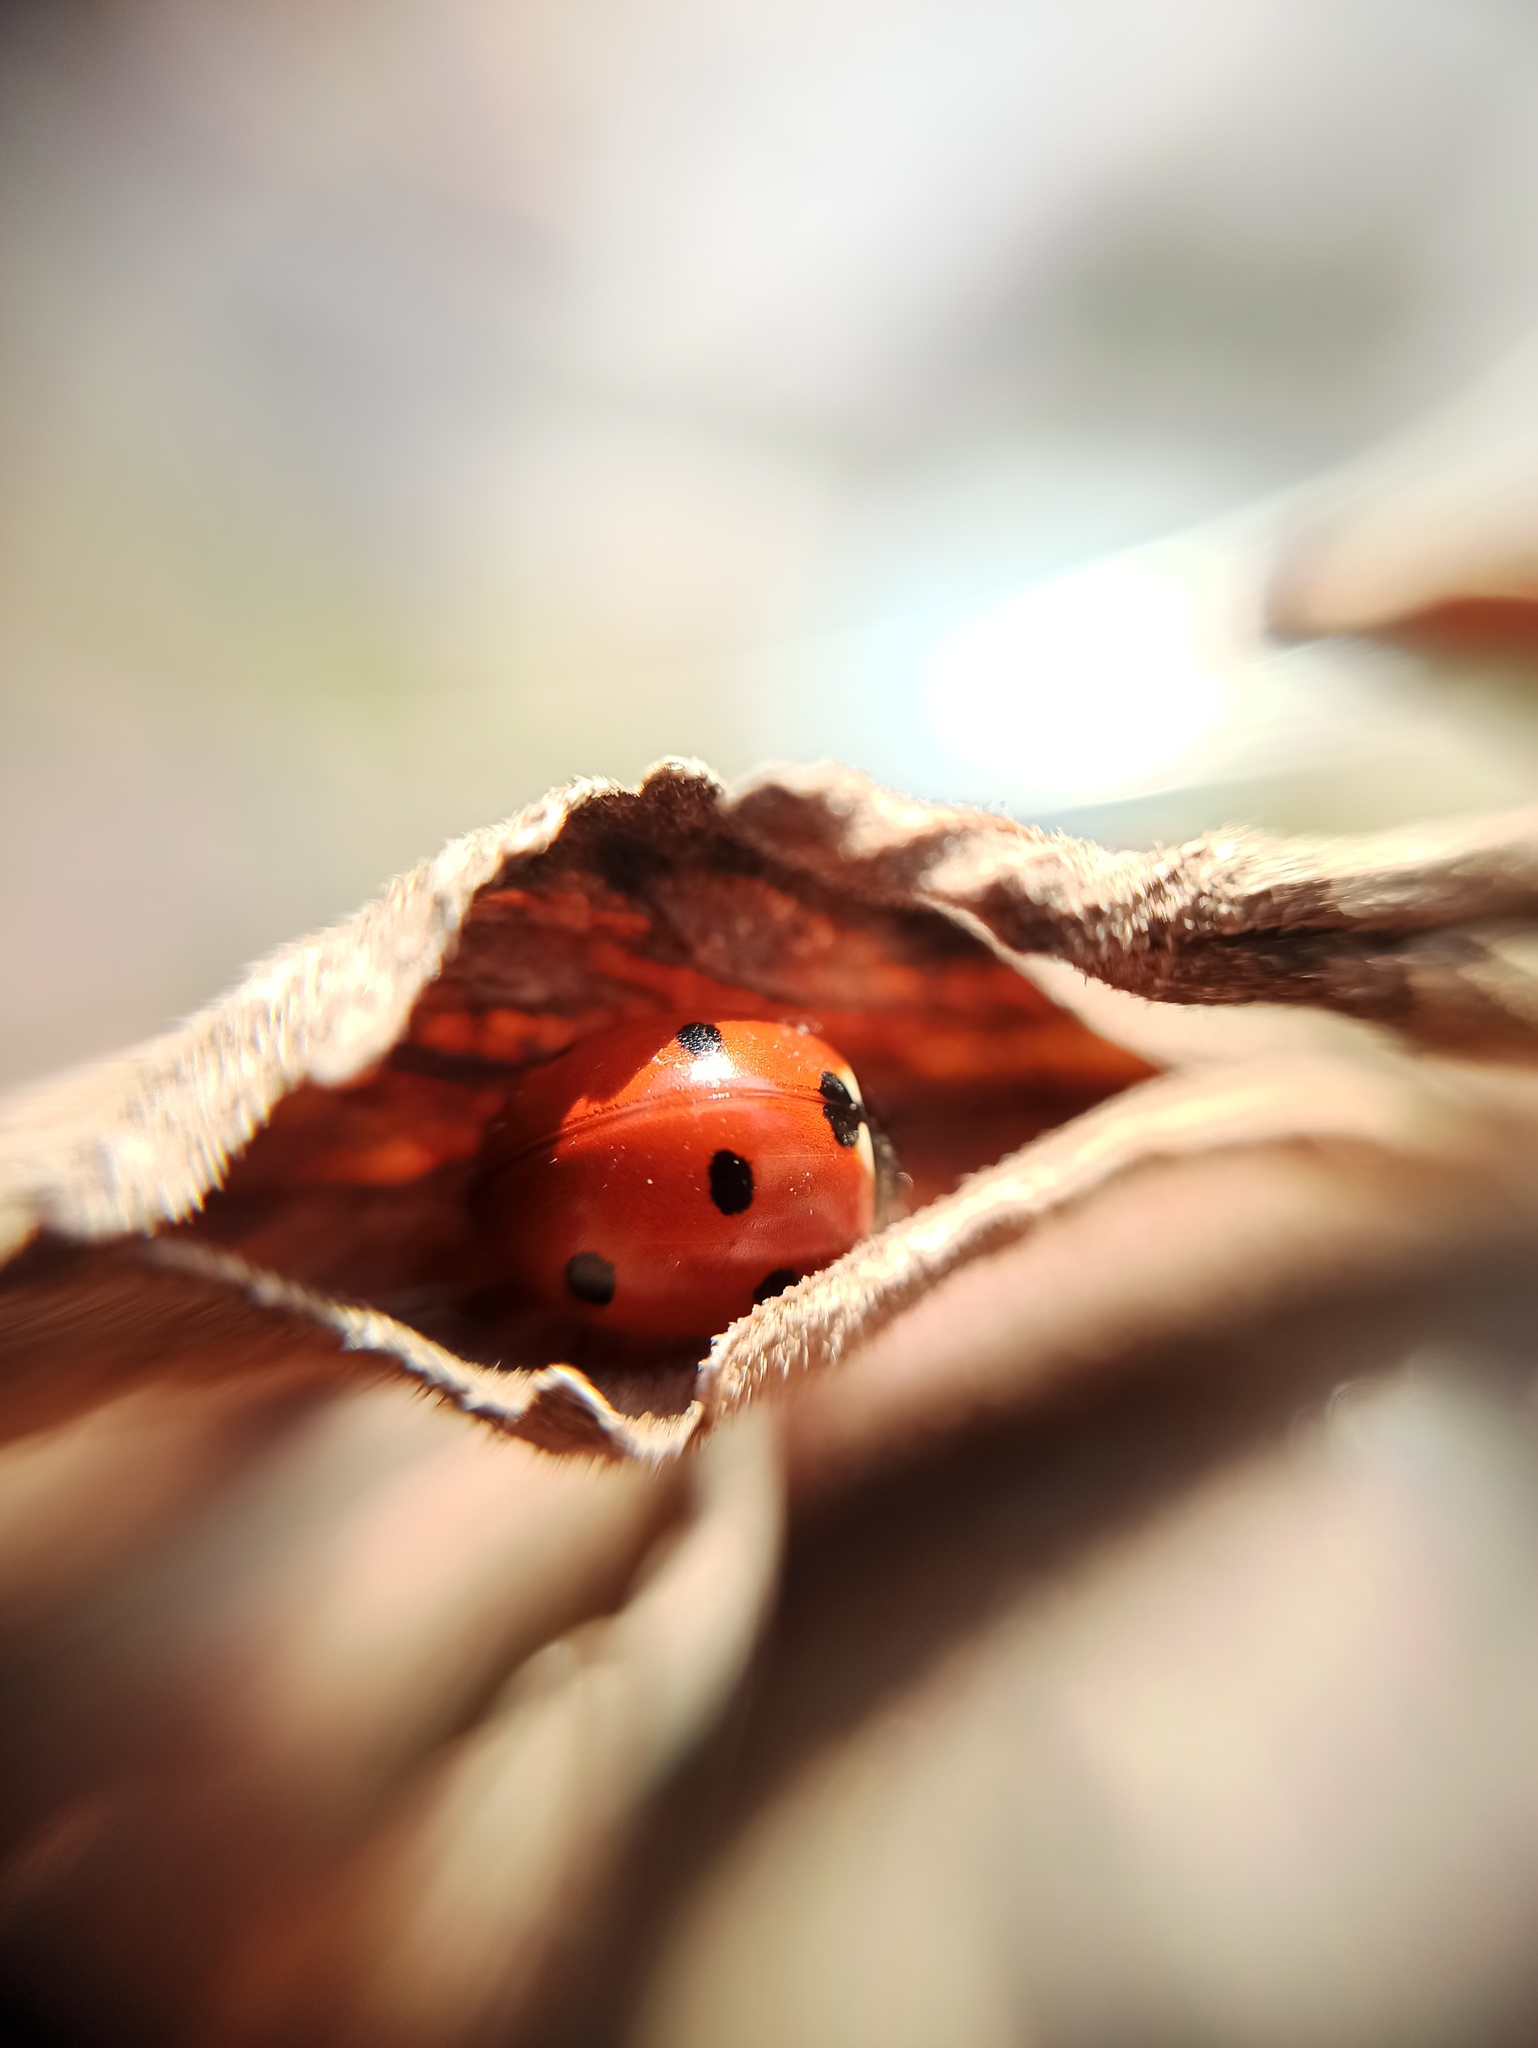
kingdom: Animalia
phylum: Arthropoda
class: Insecta
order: Coleoptera
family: Coccinellidae
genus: Coccinella
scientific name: Coccinella septempunctata
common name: Sevenspotted lady beetle
